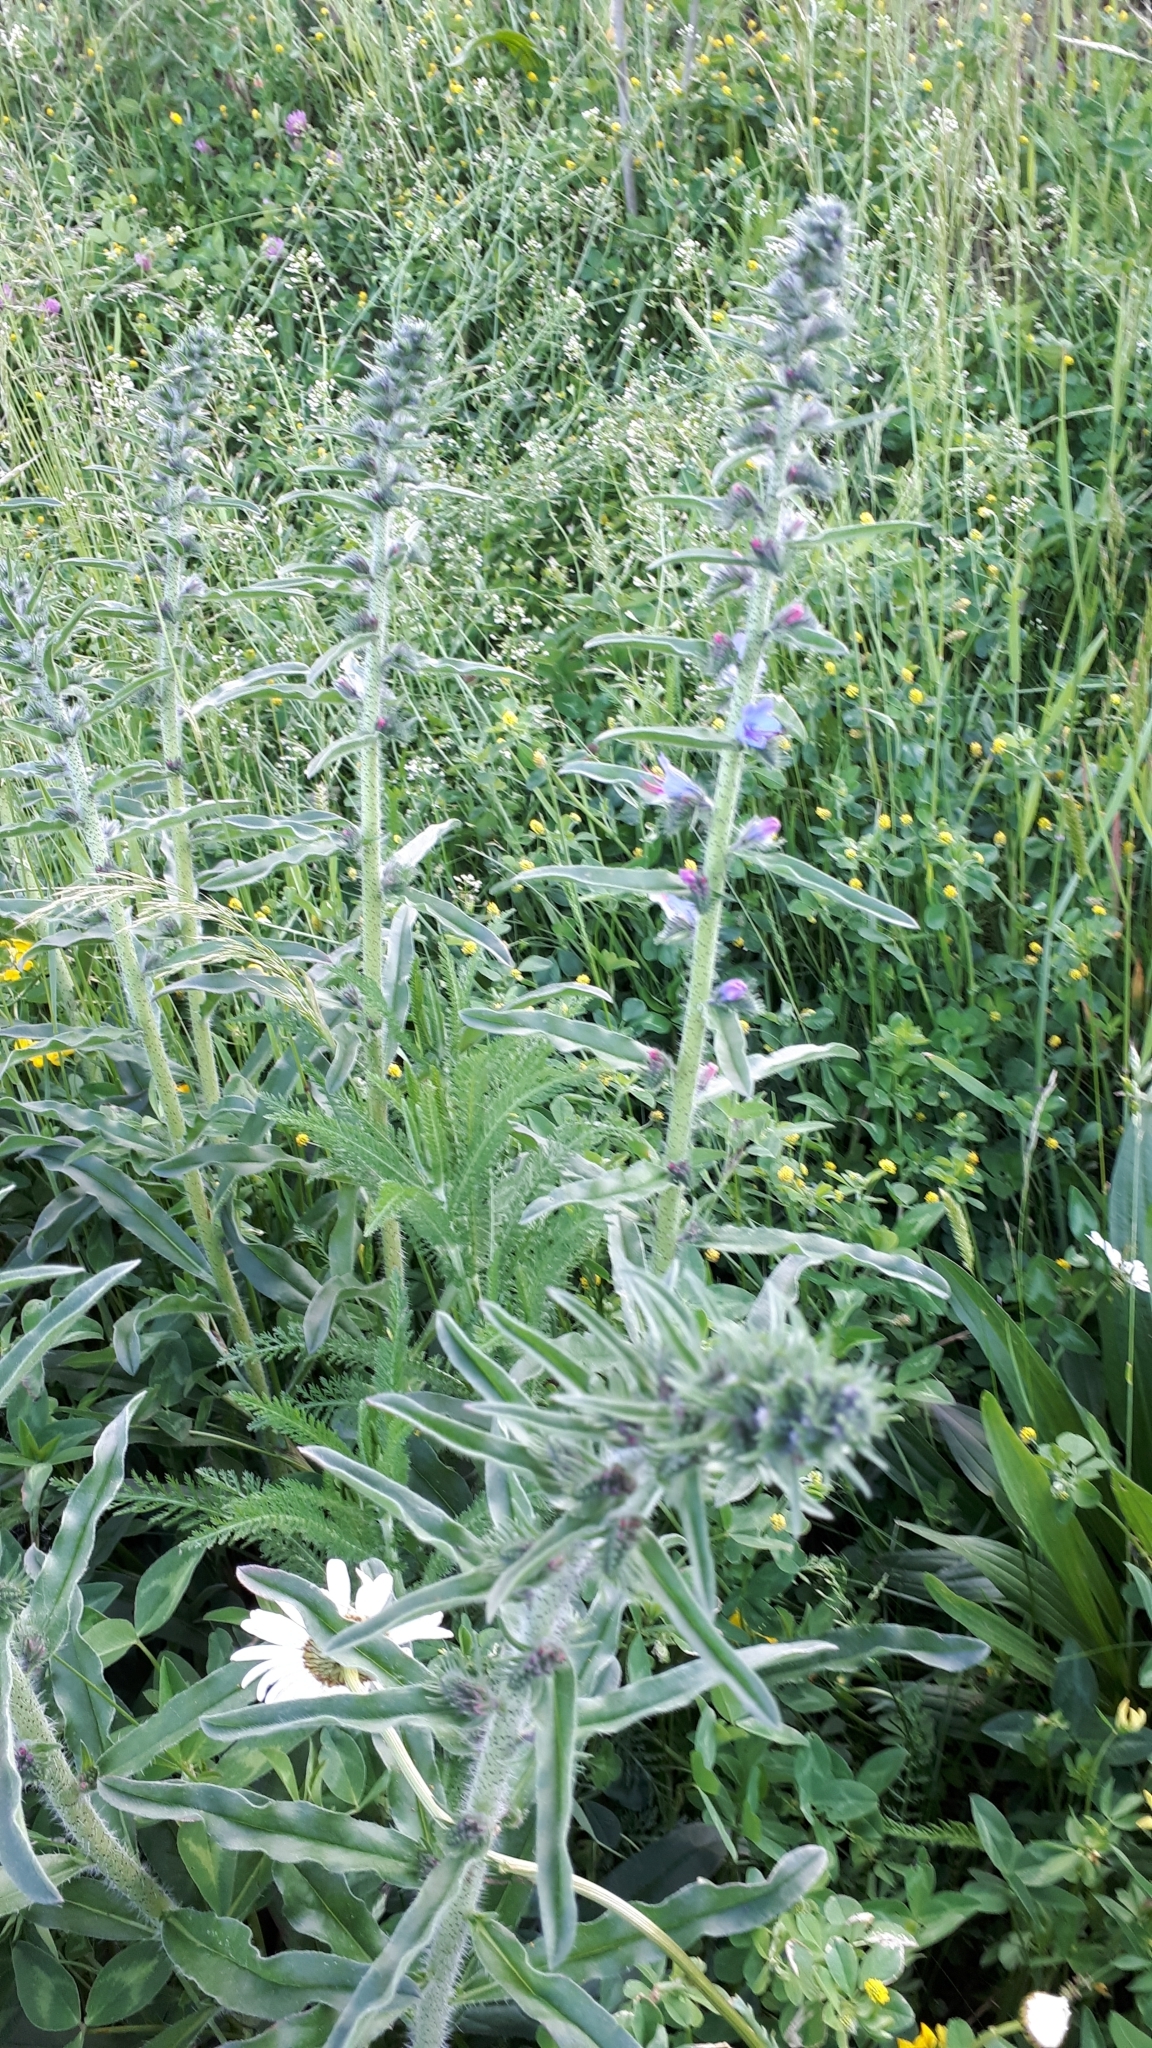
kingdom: Plantae
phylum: Tracheophyta
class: Magnoliopsida
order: Boraginales
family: Boraginaceae
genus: Echium
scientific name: Echium vulgare
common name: Common viper's bugloss
